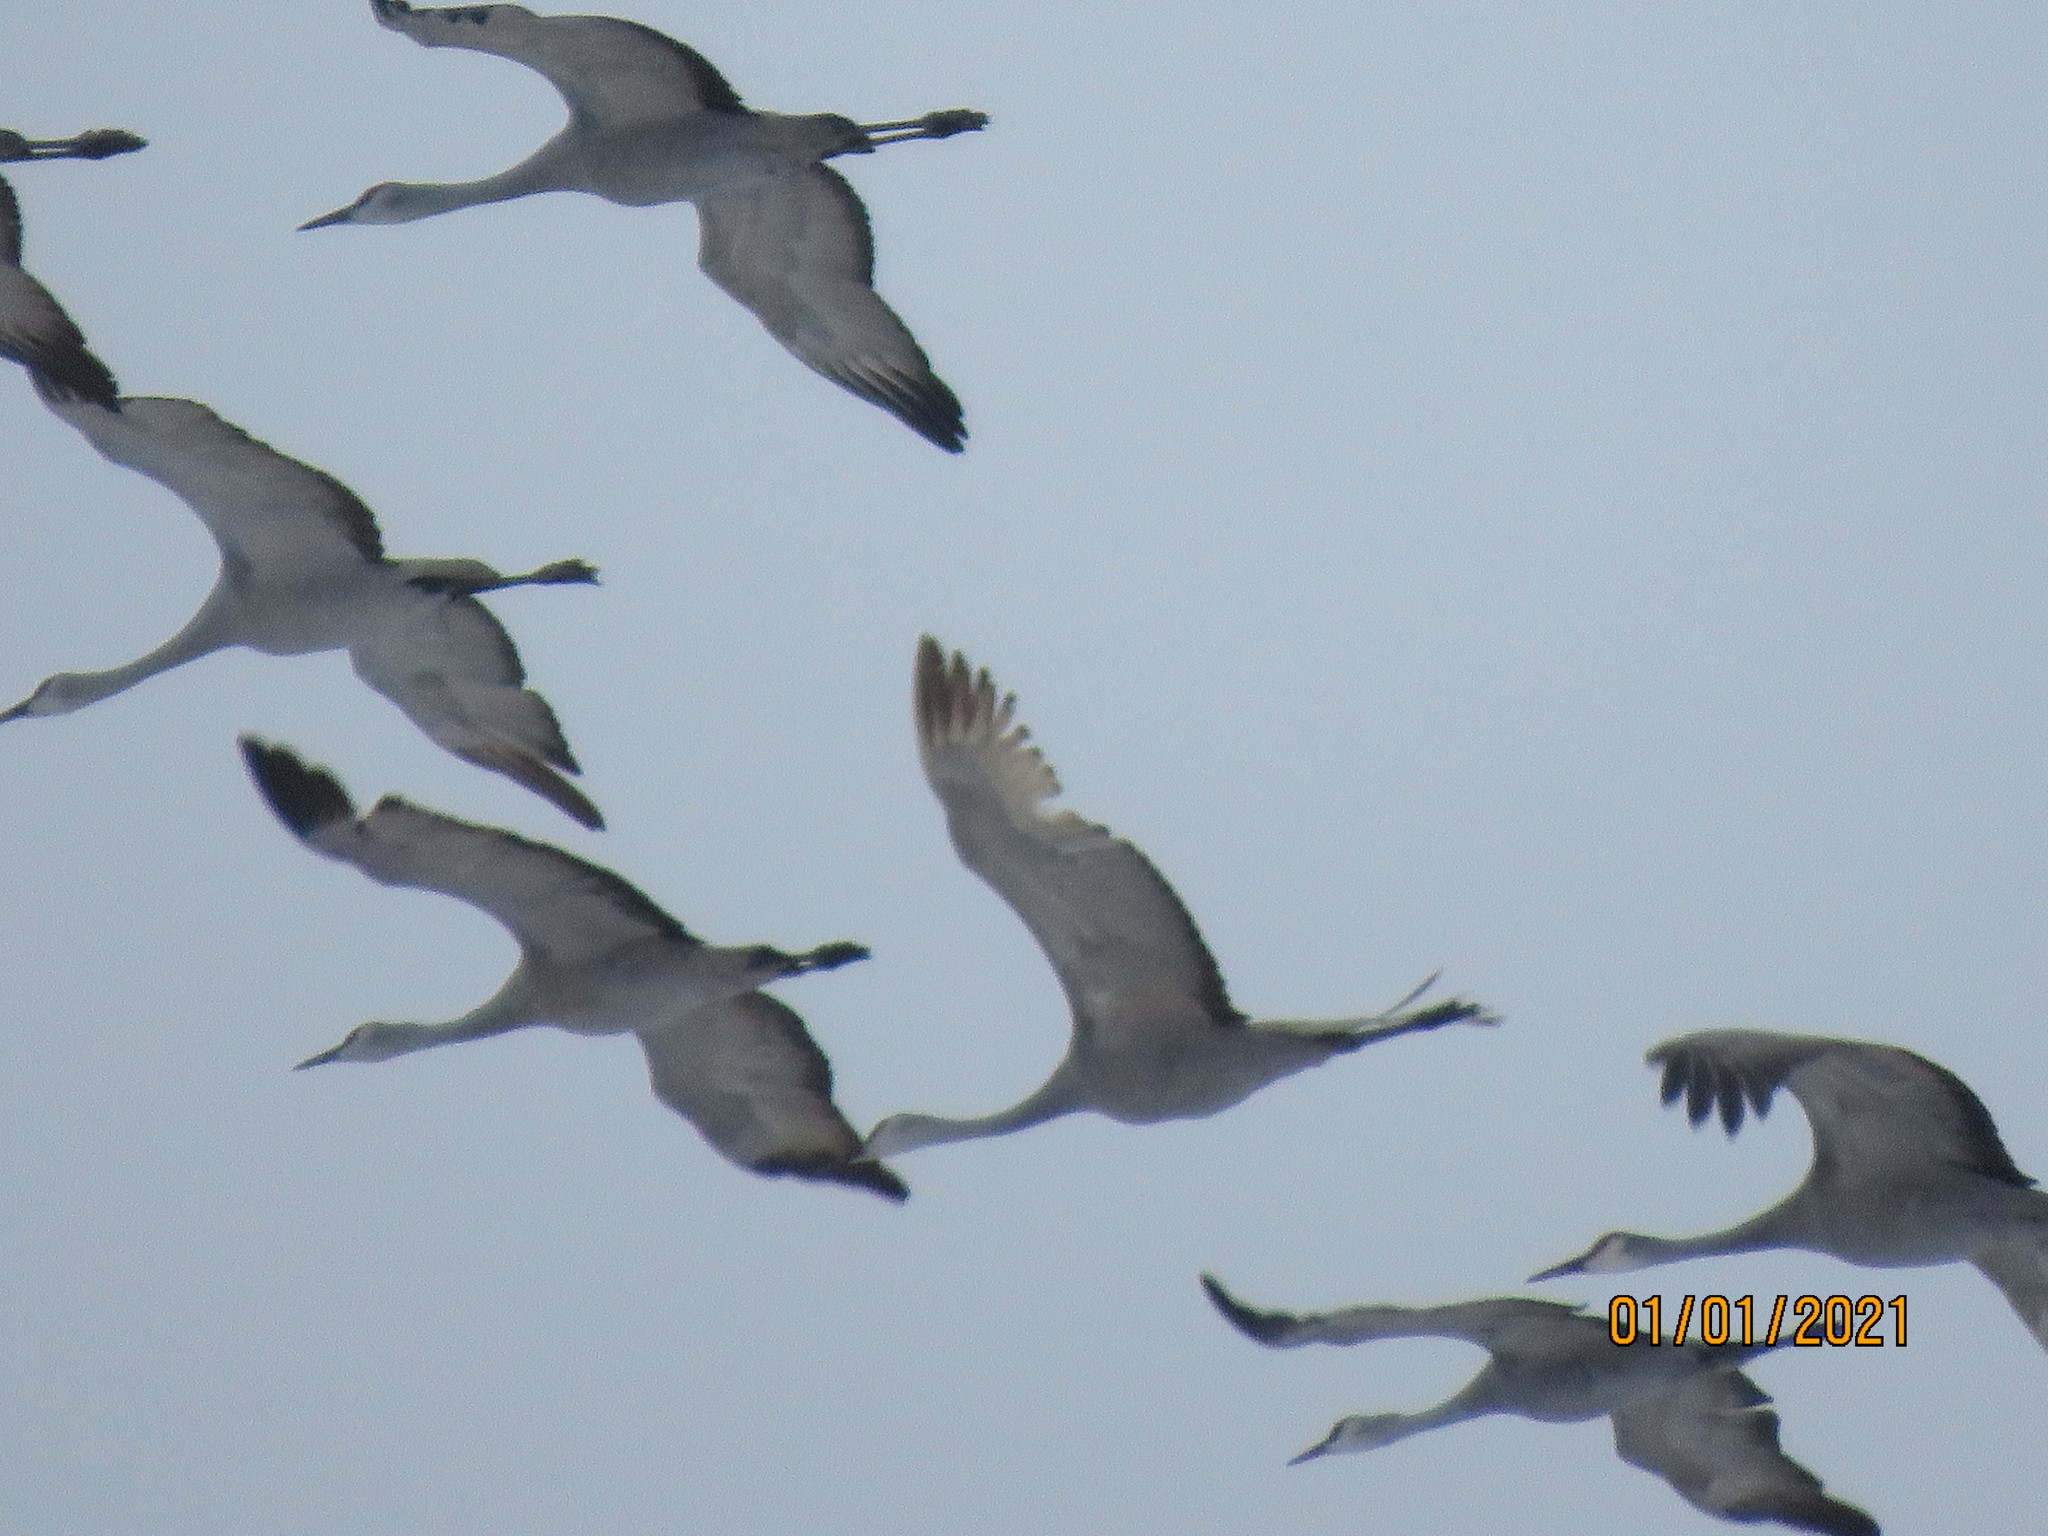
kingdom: Animalia
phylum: Chordata
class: Aves
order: Gruiformes
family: Gruidae
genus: Grus
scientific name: Grus canadensis
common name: Sandhill crane
